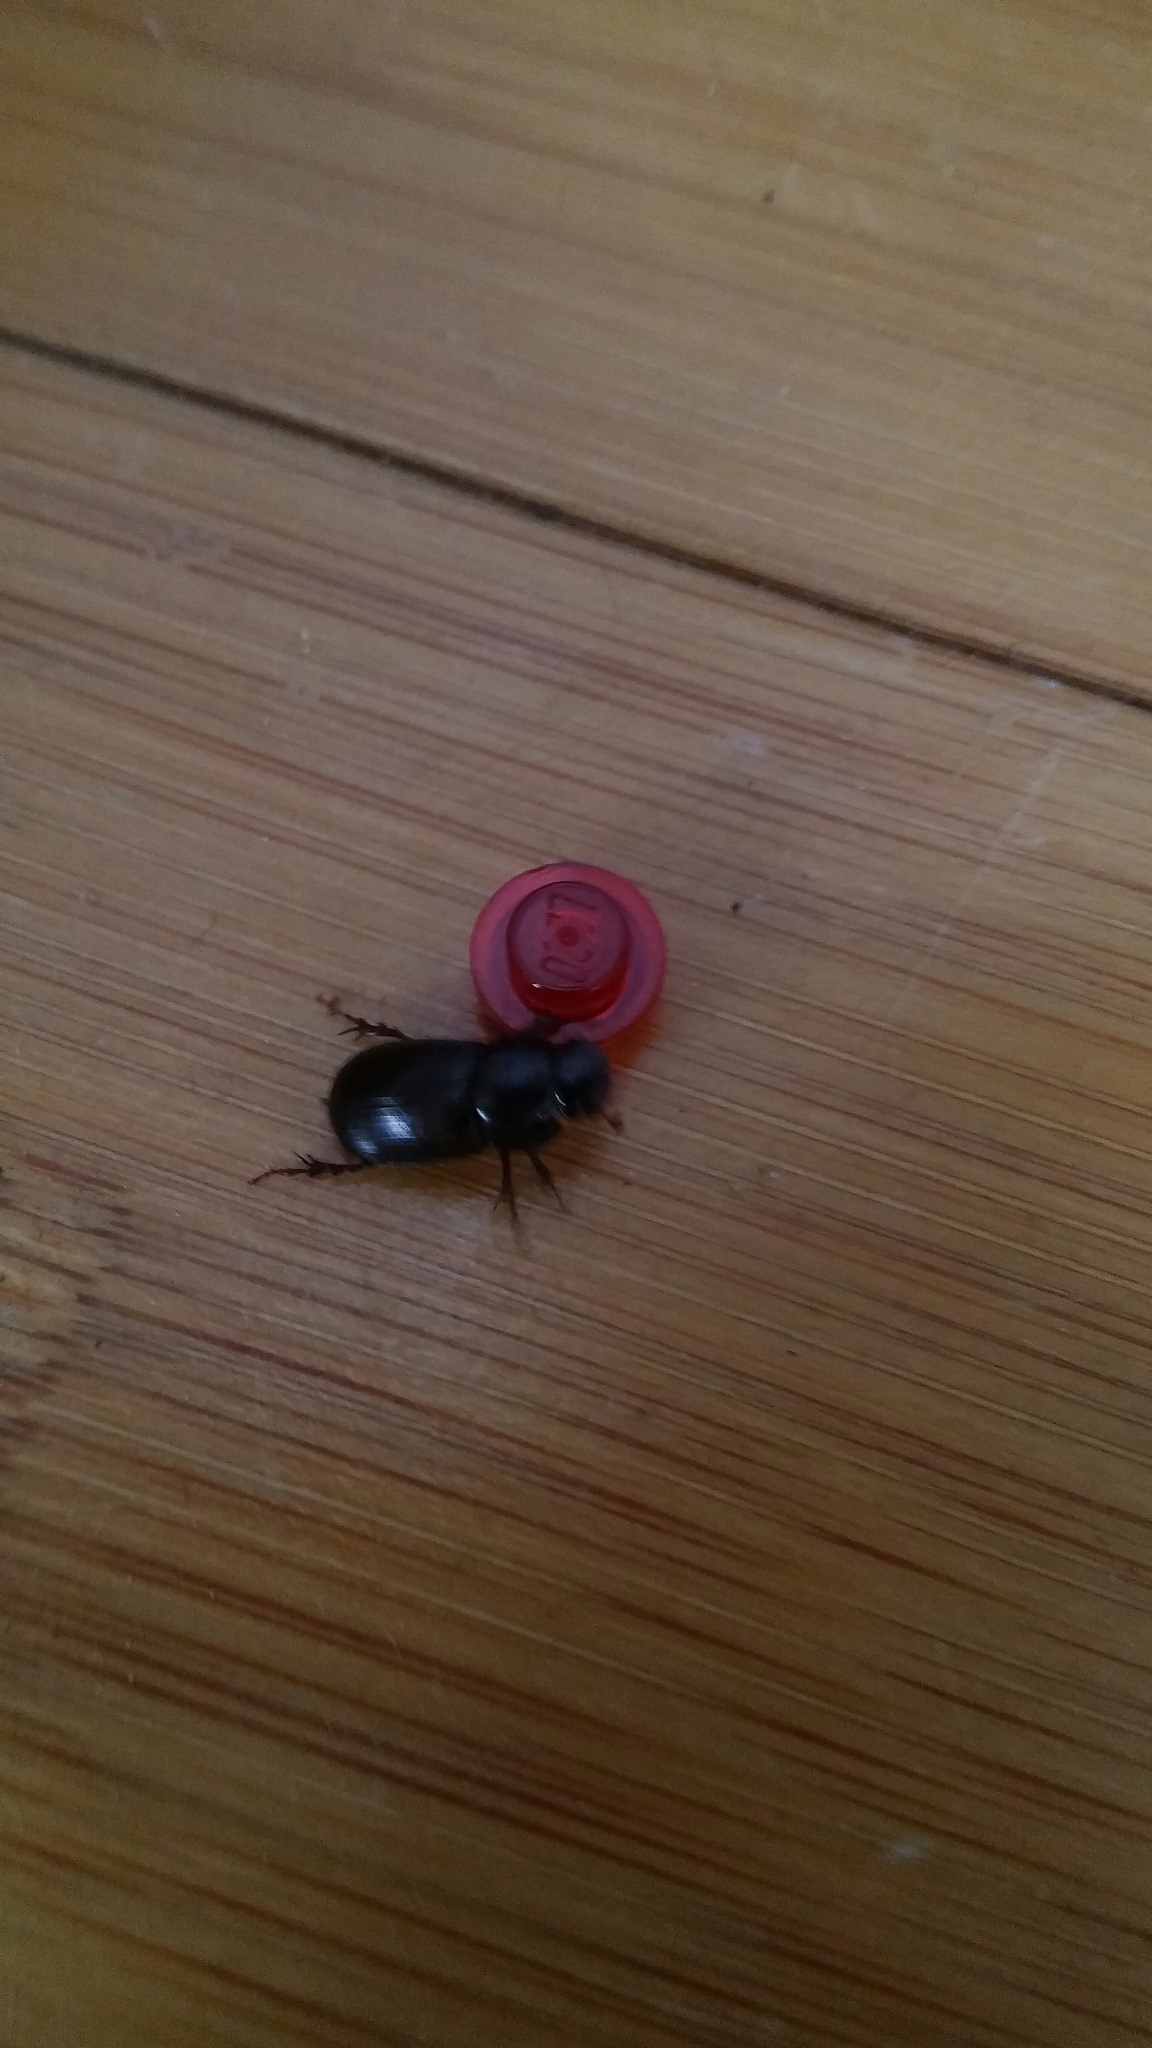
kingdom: Animalia
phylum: Arthropoda
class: Insecta
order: Coleoptera
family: Scarabaeidae
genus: Acrossus
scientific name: Acrossus rufipes
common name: Night-flying dung beetle
